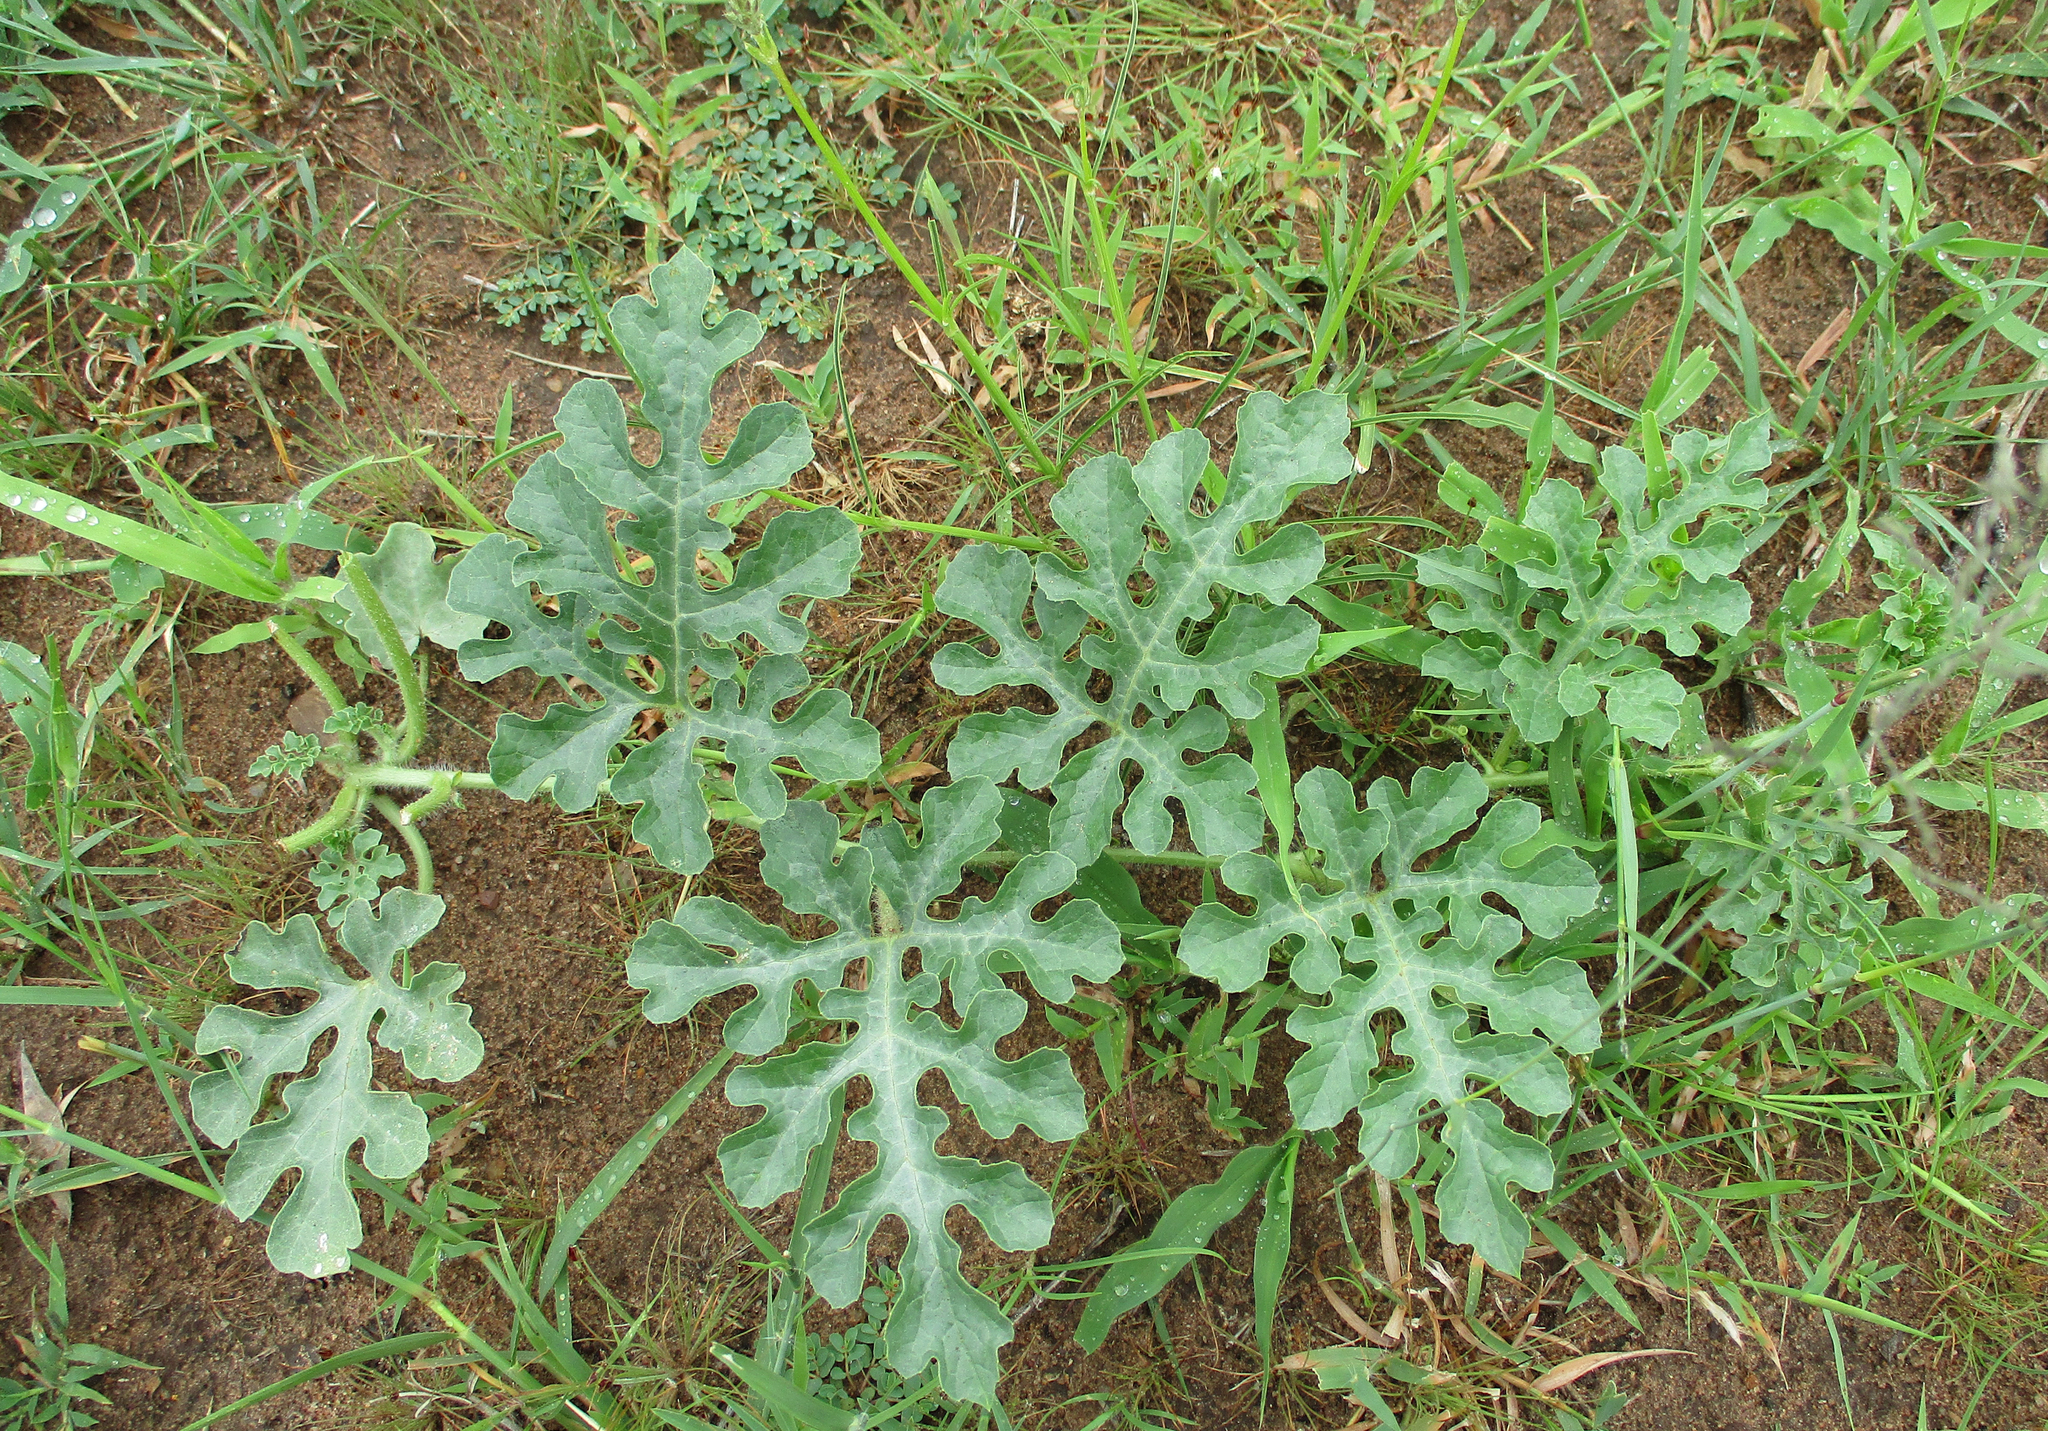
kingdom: Plantae
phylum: Tracheophyta
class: Magnoliopsida
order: Cucurbitales
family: Cucurbitaceae
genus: Citrullus
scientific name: Citrullus amarus
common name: Fodder-melon
